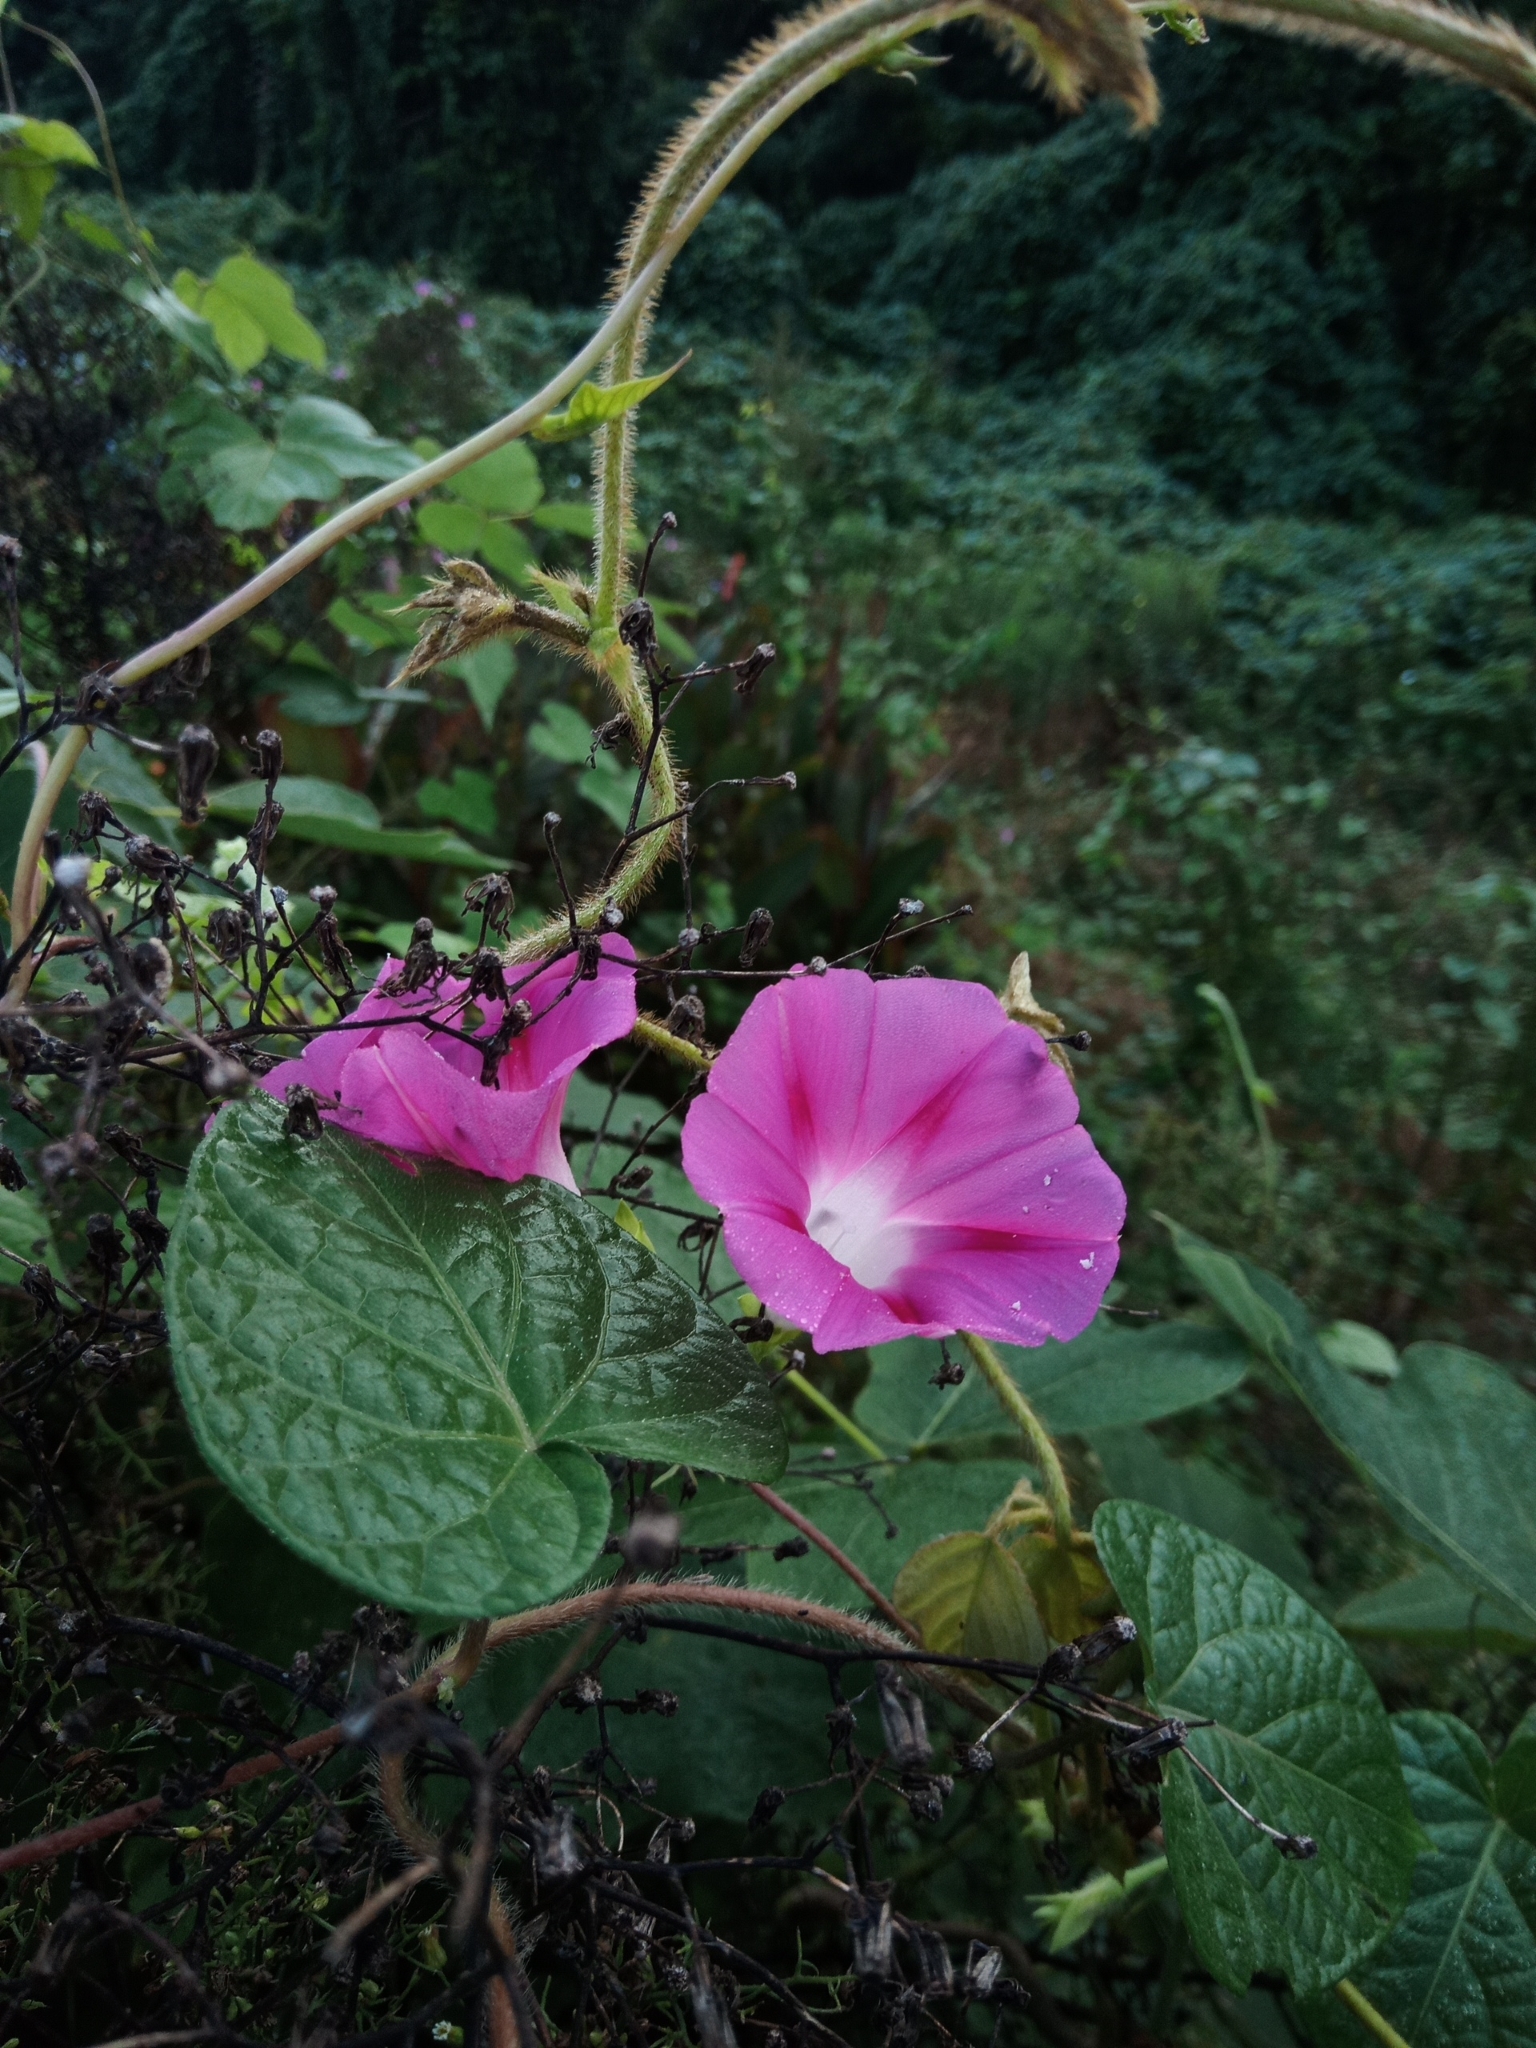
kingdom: Plantae
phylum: Tracheophyta
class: Magnoliopsida
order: Solanales
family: Convolvulaceae
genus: Ipomoea
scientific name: Ipomoea purpurea
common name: Common morning-glory
